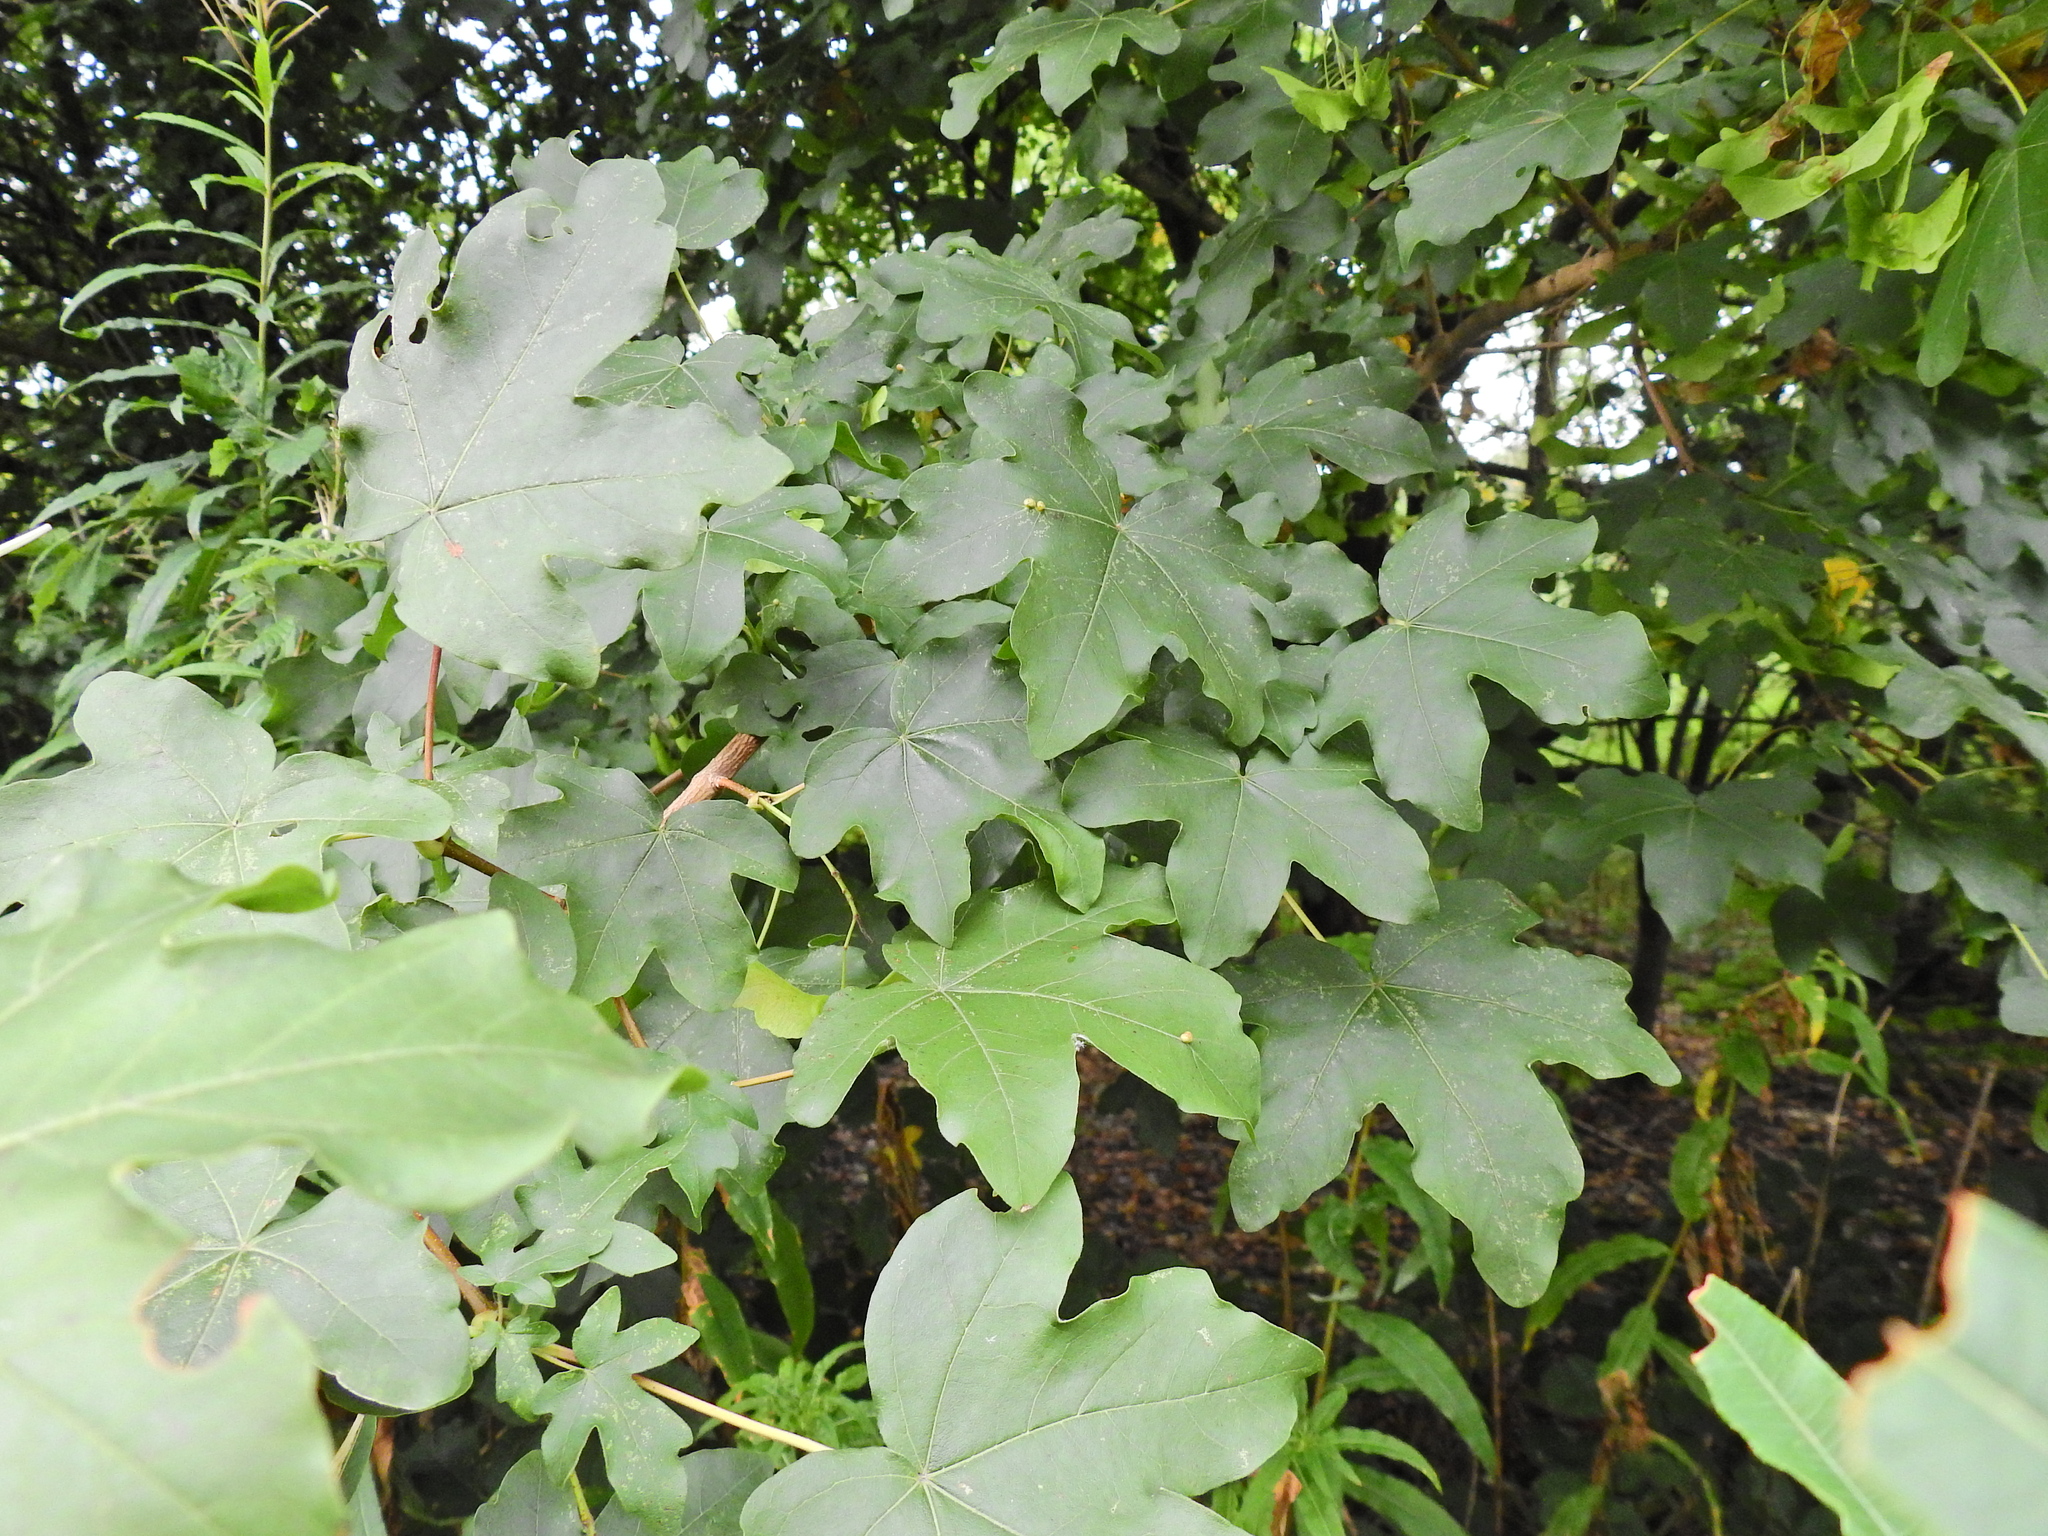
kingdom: Plantae
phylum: Tracheophyta
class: Magnoliopsida
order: Sapindales
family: Sapindaceae
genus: Acer
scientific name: Acer campestre
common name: Field maple
